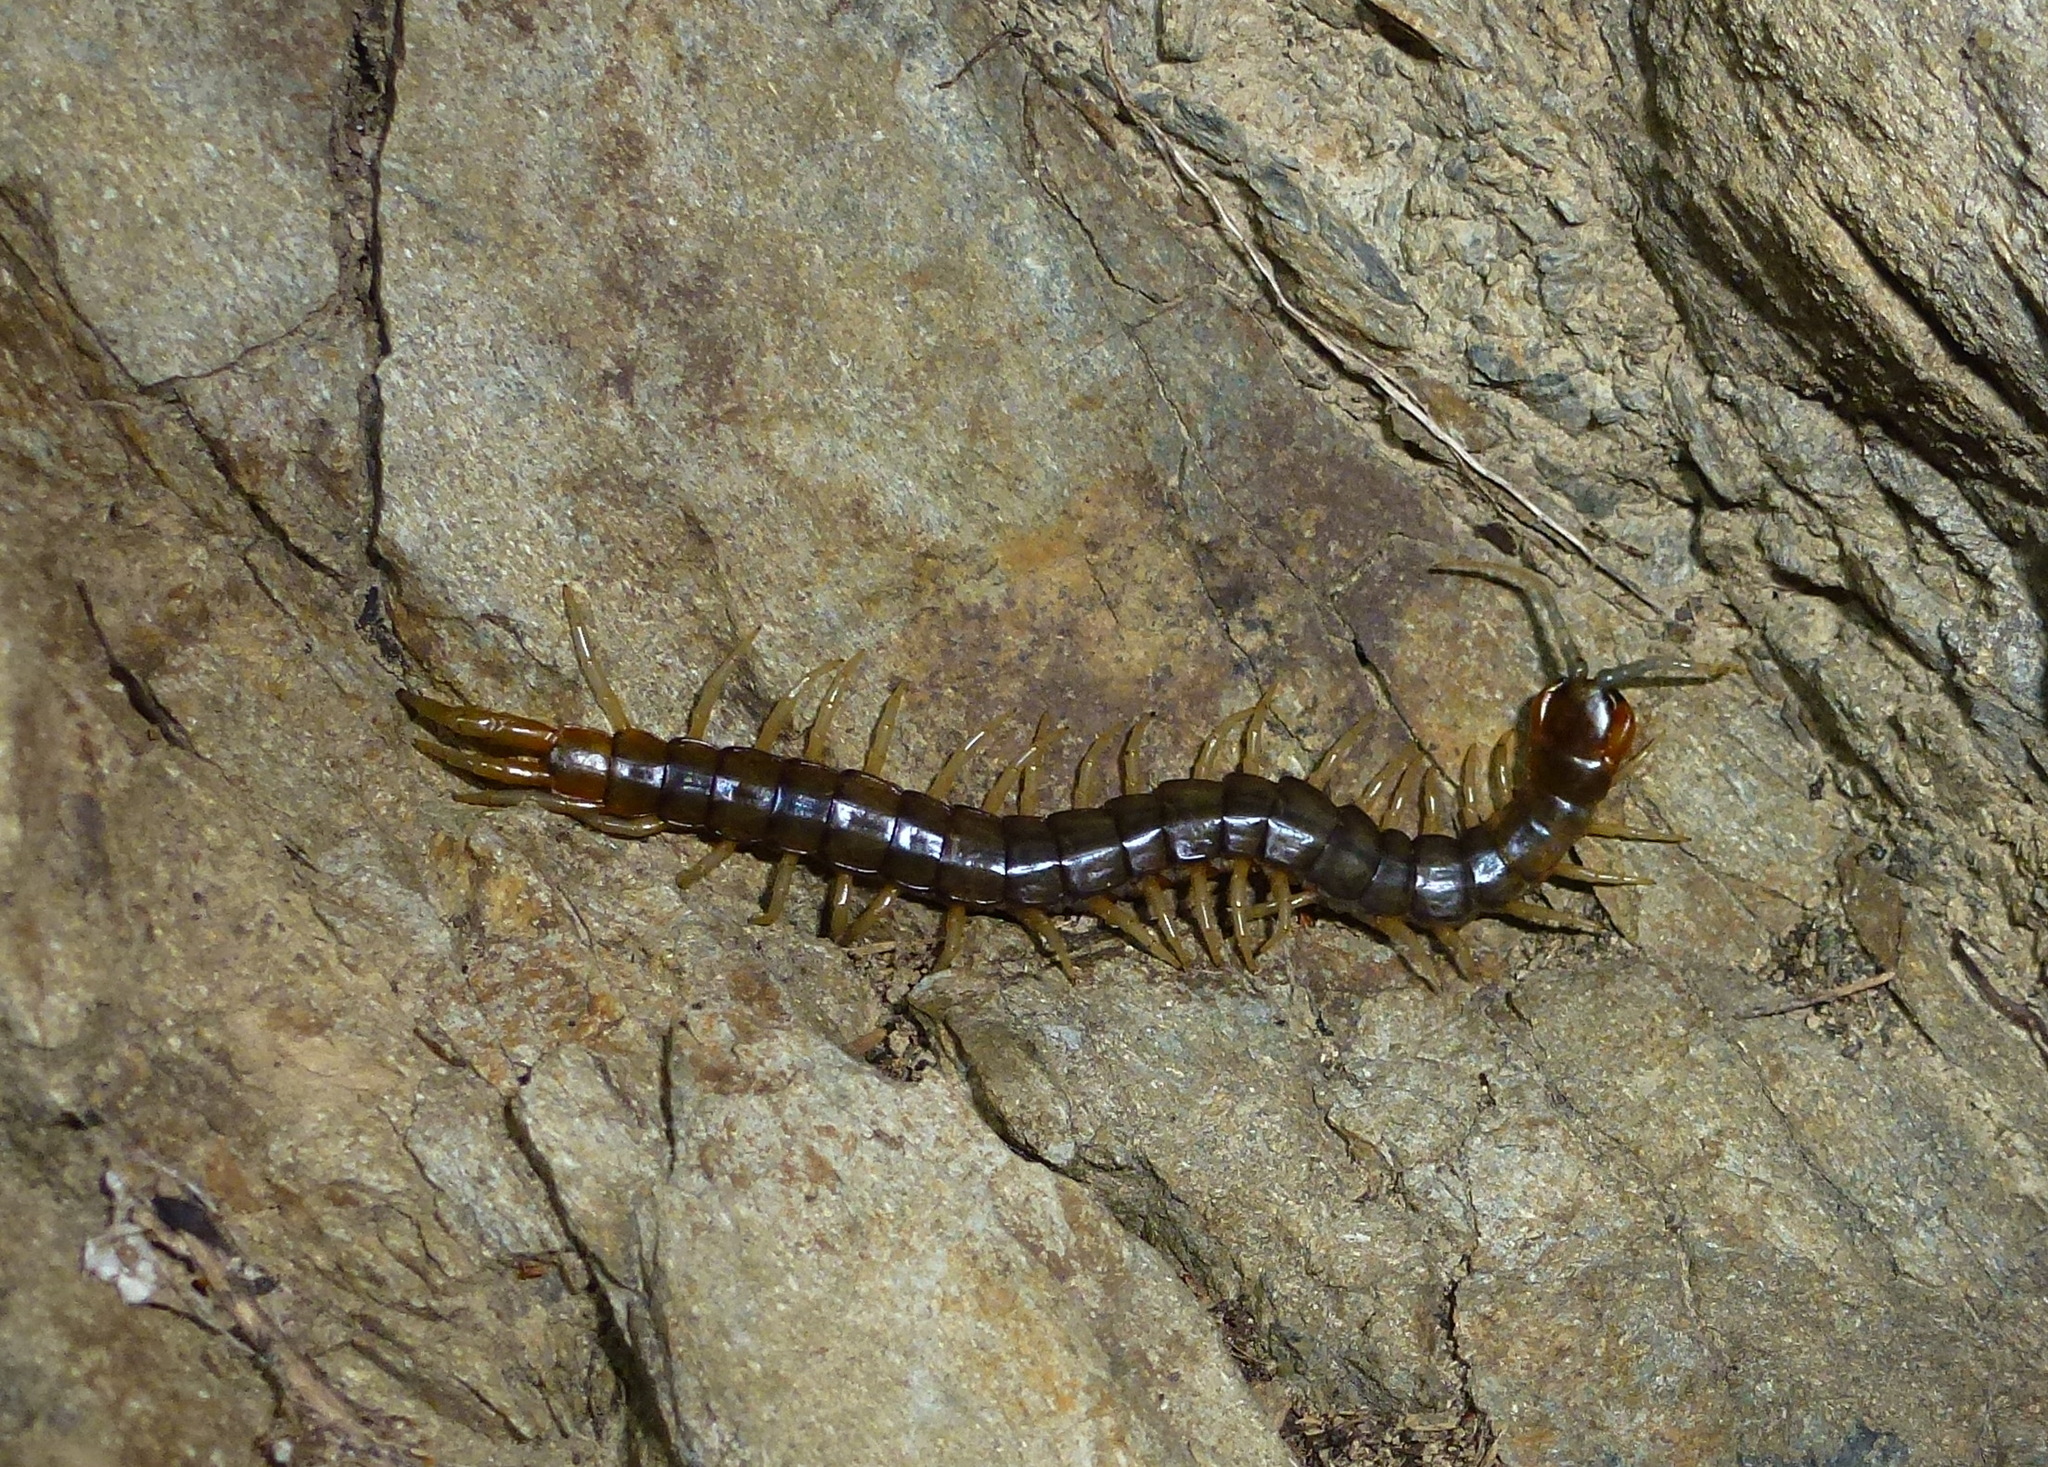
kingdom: Animalia
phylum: Arthropoda
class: Chilopoda
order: Scolopendromorpha
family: Scolopendridae
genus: Cormocephalus
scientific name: Cormocephalus rubriceps
